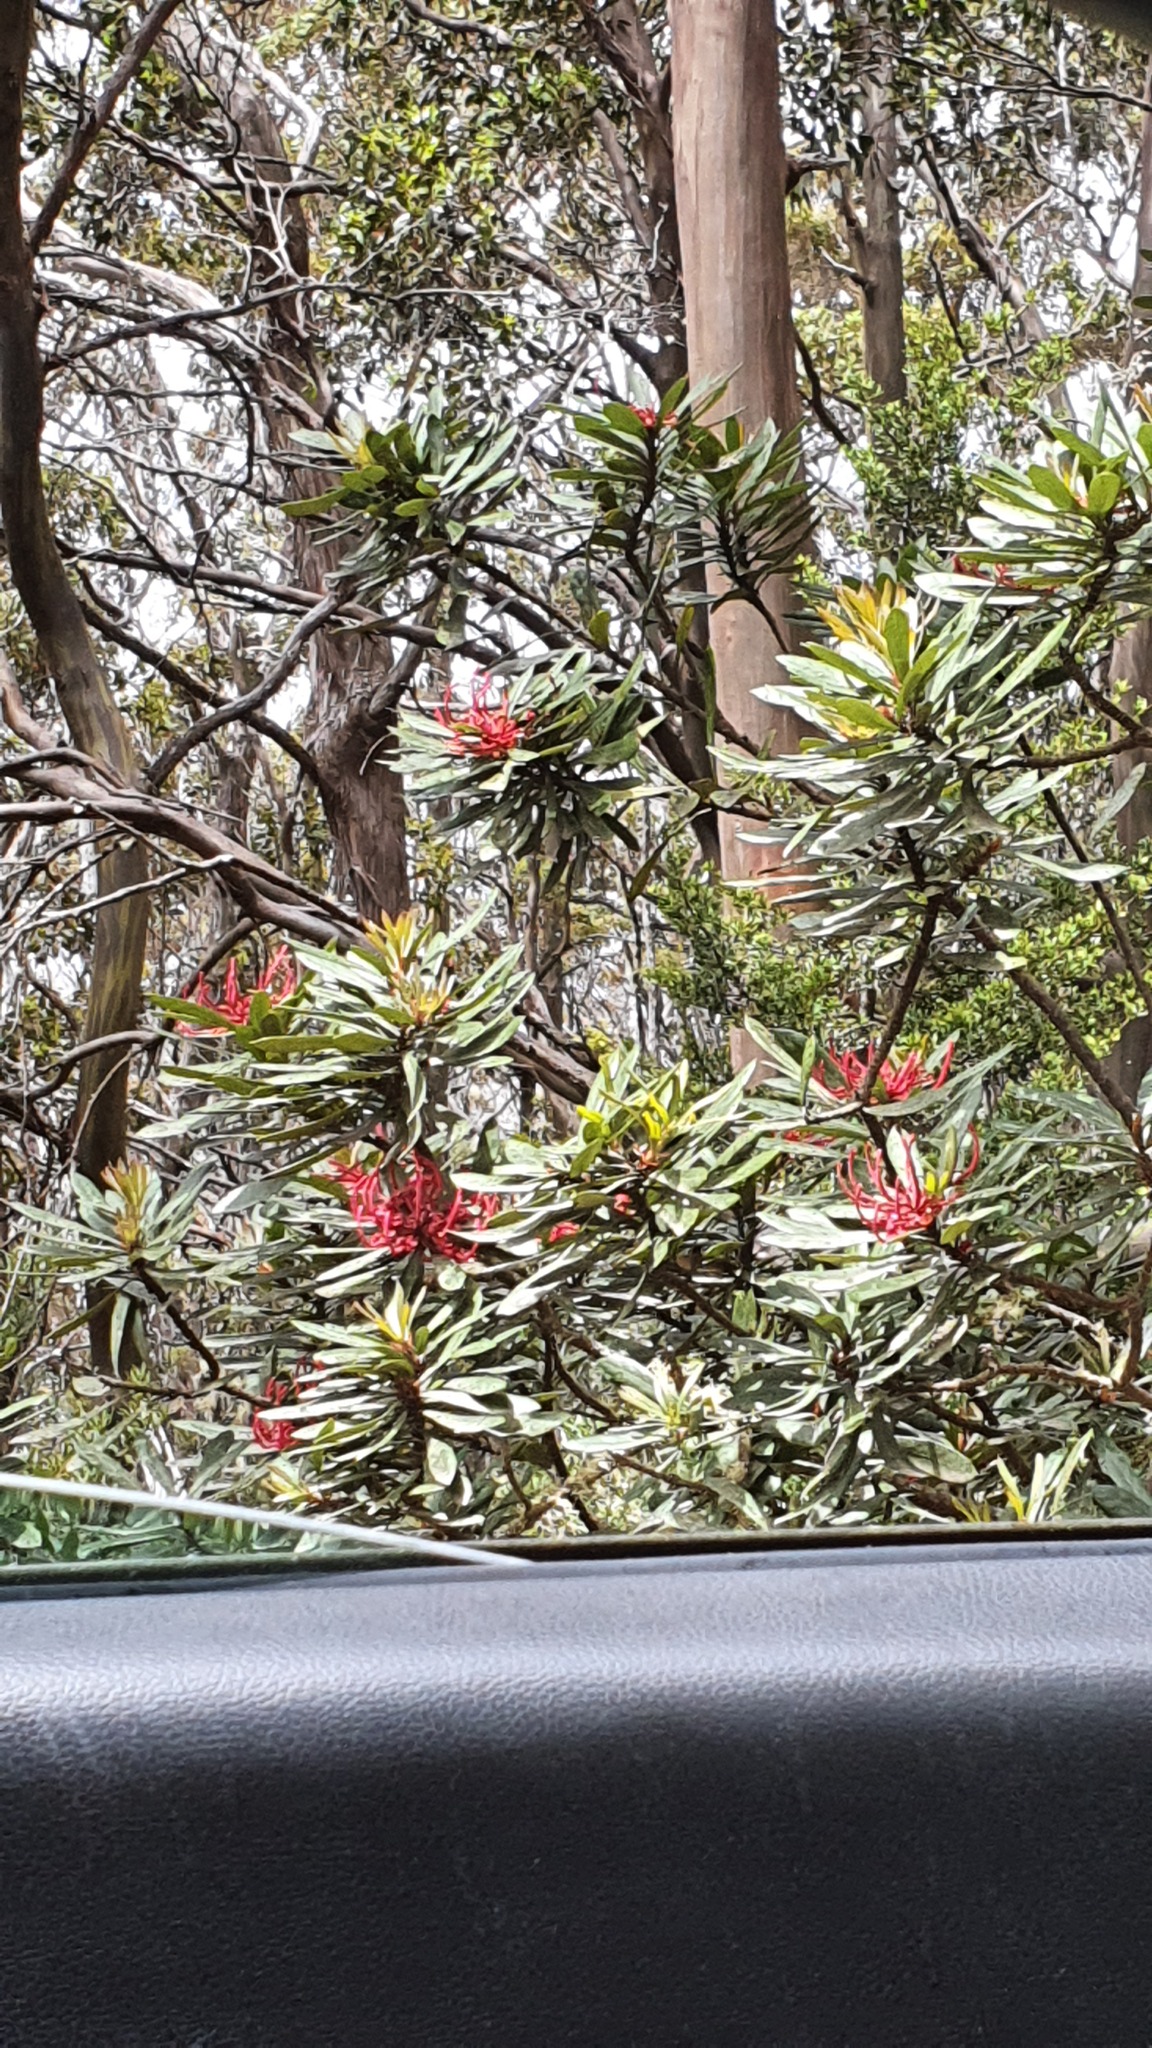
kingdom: Plantae
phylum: Tracheophyta
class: Magnoliopsida
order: Proteales
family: Proteaceae
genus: Telopea
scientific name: Telopea truncata
